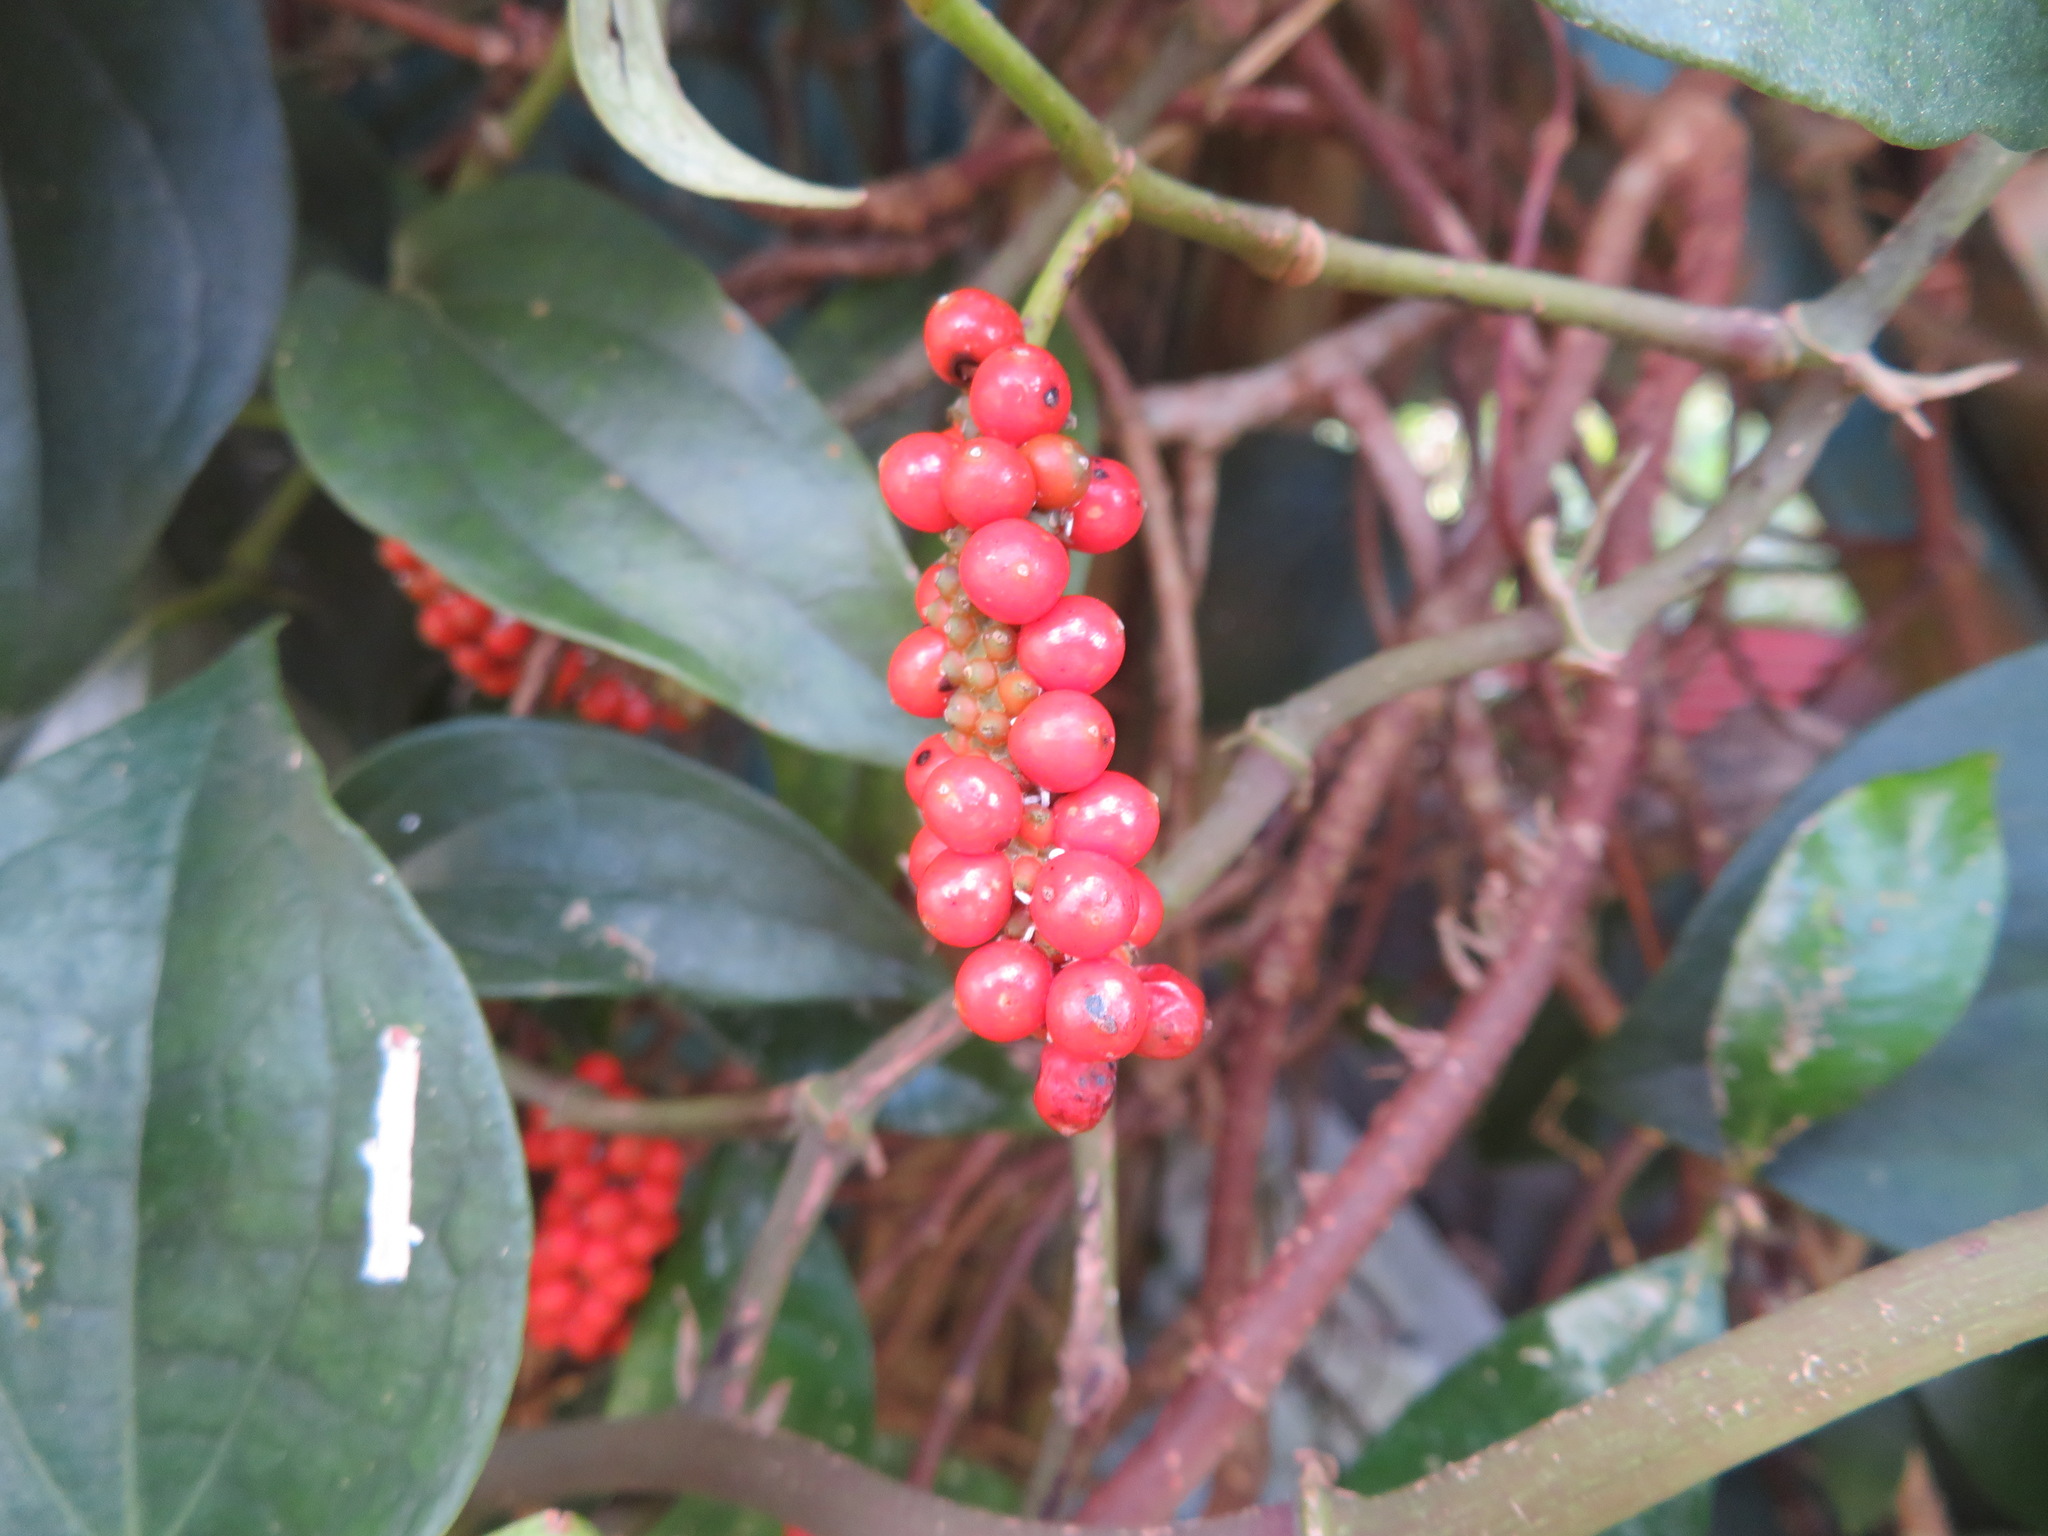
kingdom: Plantae
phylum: Tracheophyta
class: Magnoliopsida
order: Piperales
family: Piperaceae
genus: Piper
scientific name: Piper kadsura
